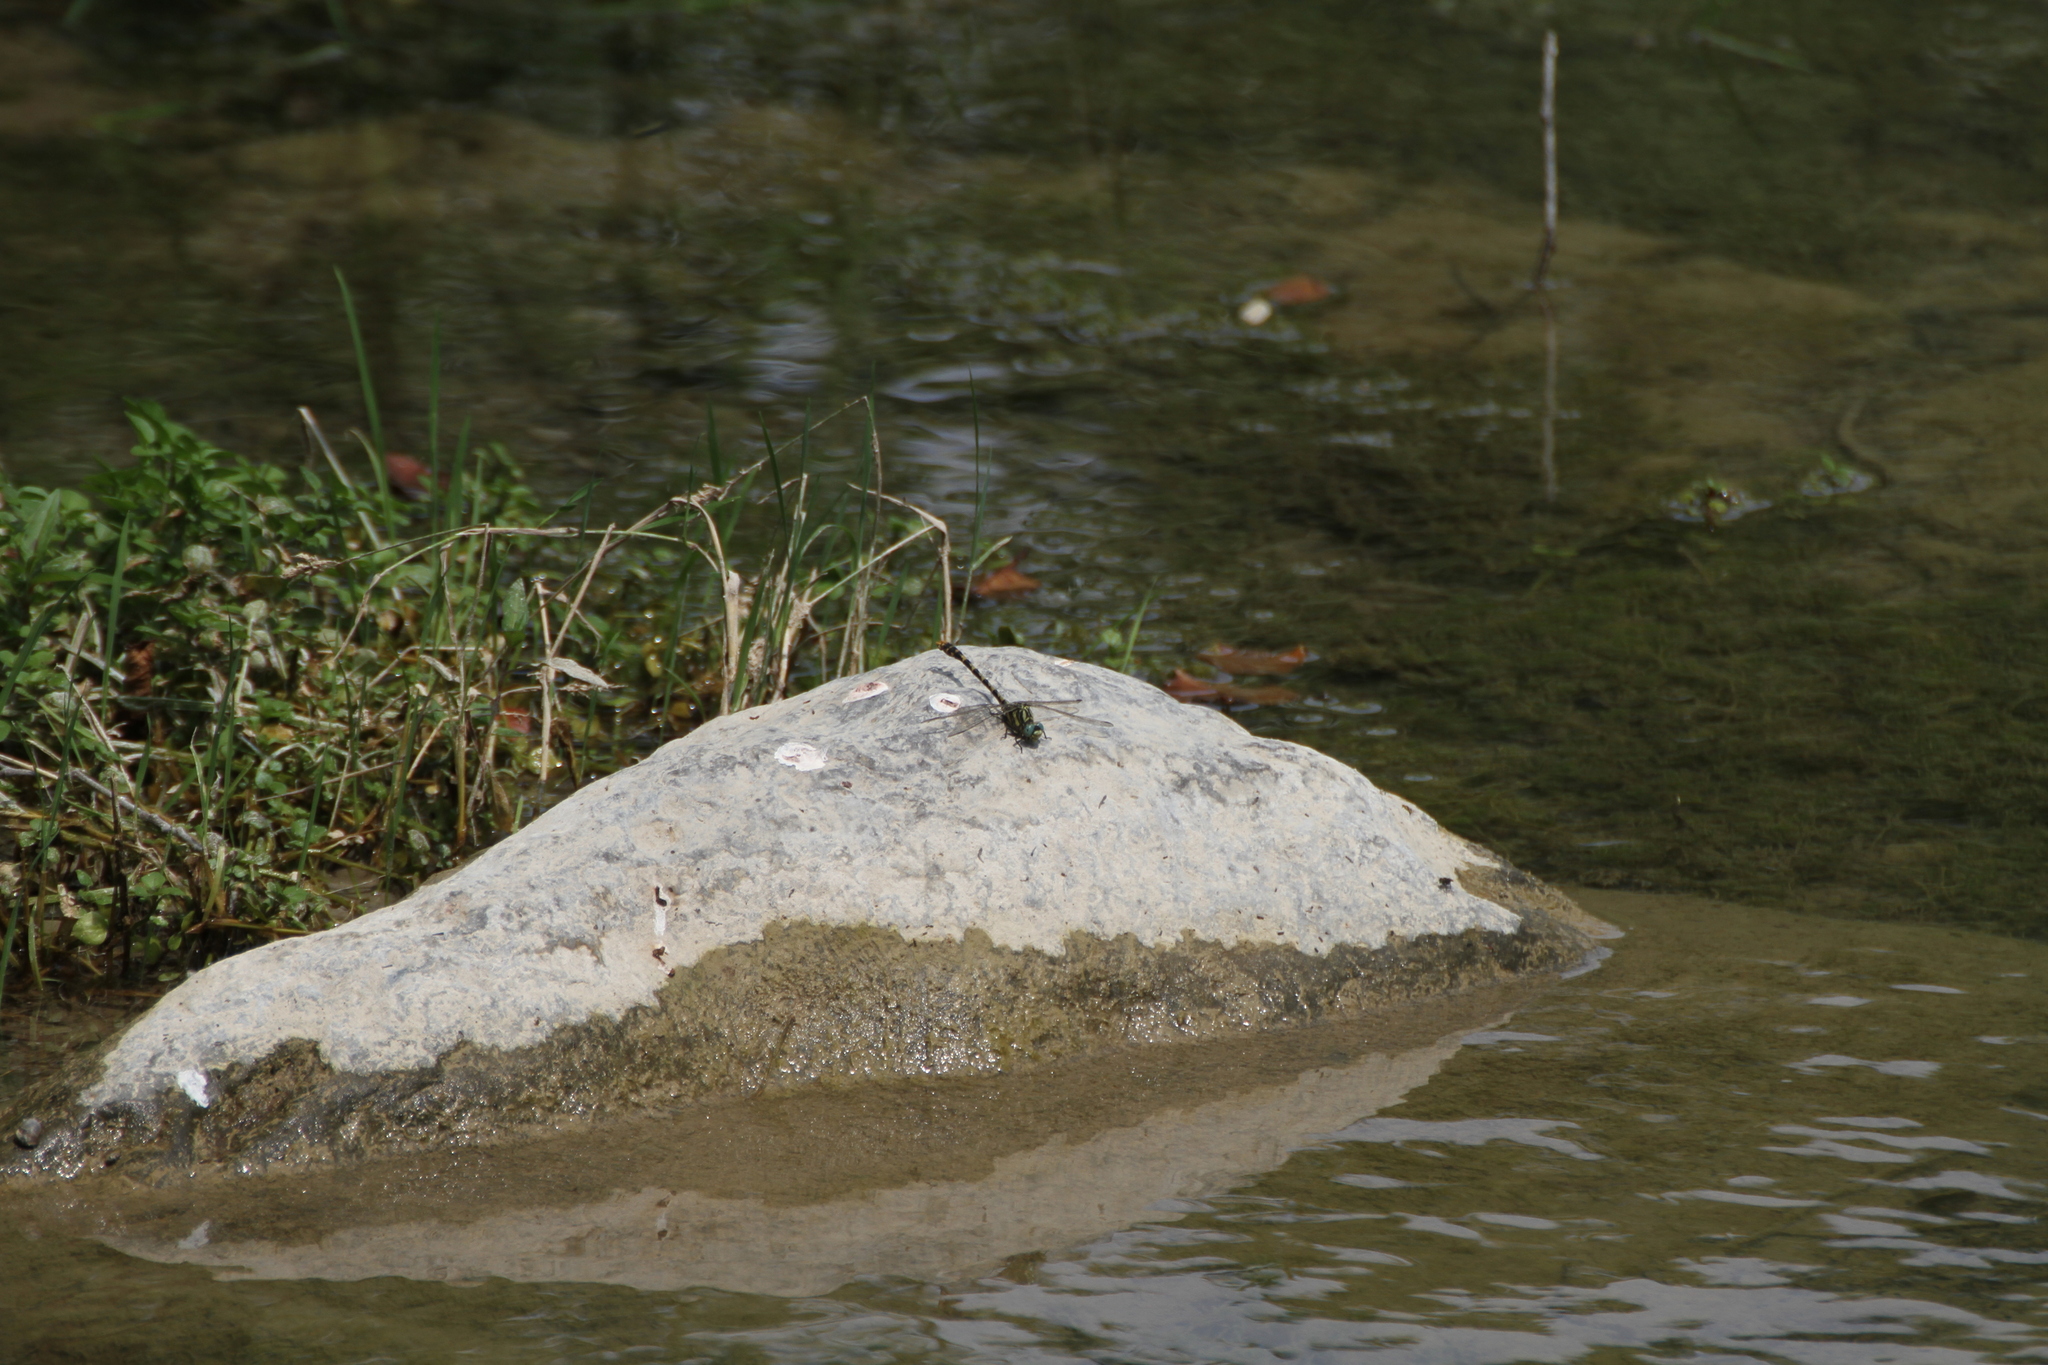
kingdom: Animalia
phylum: Arthropoda
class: Insecta
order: Odonata
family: Gomphidae
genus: Onychogomphus
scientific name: Onychogomphus uncatus
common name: Large pincertail
